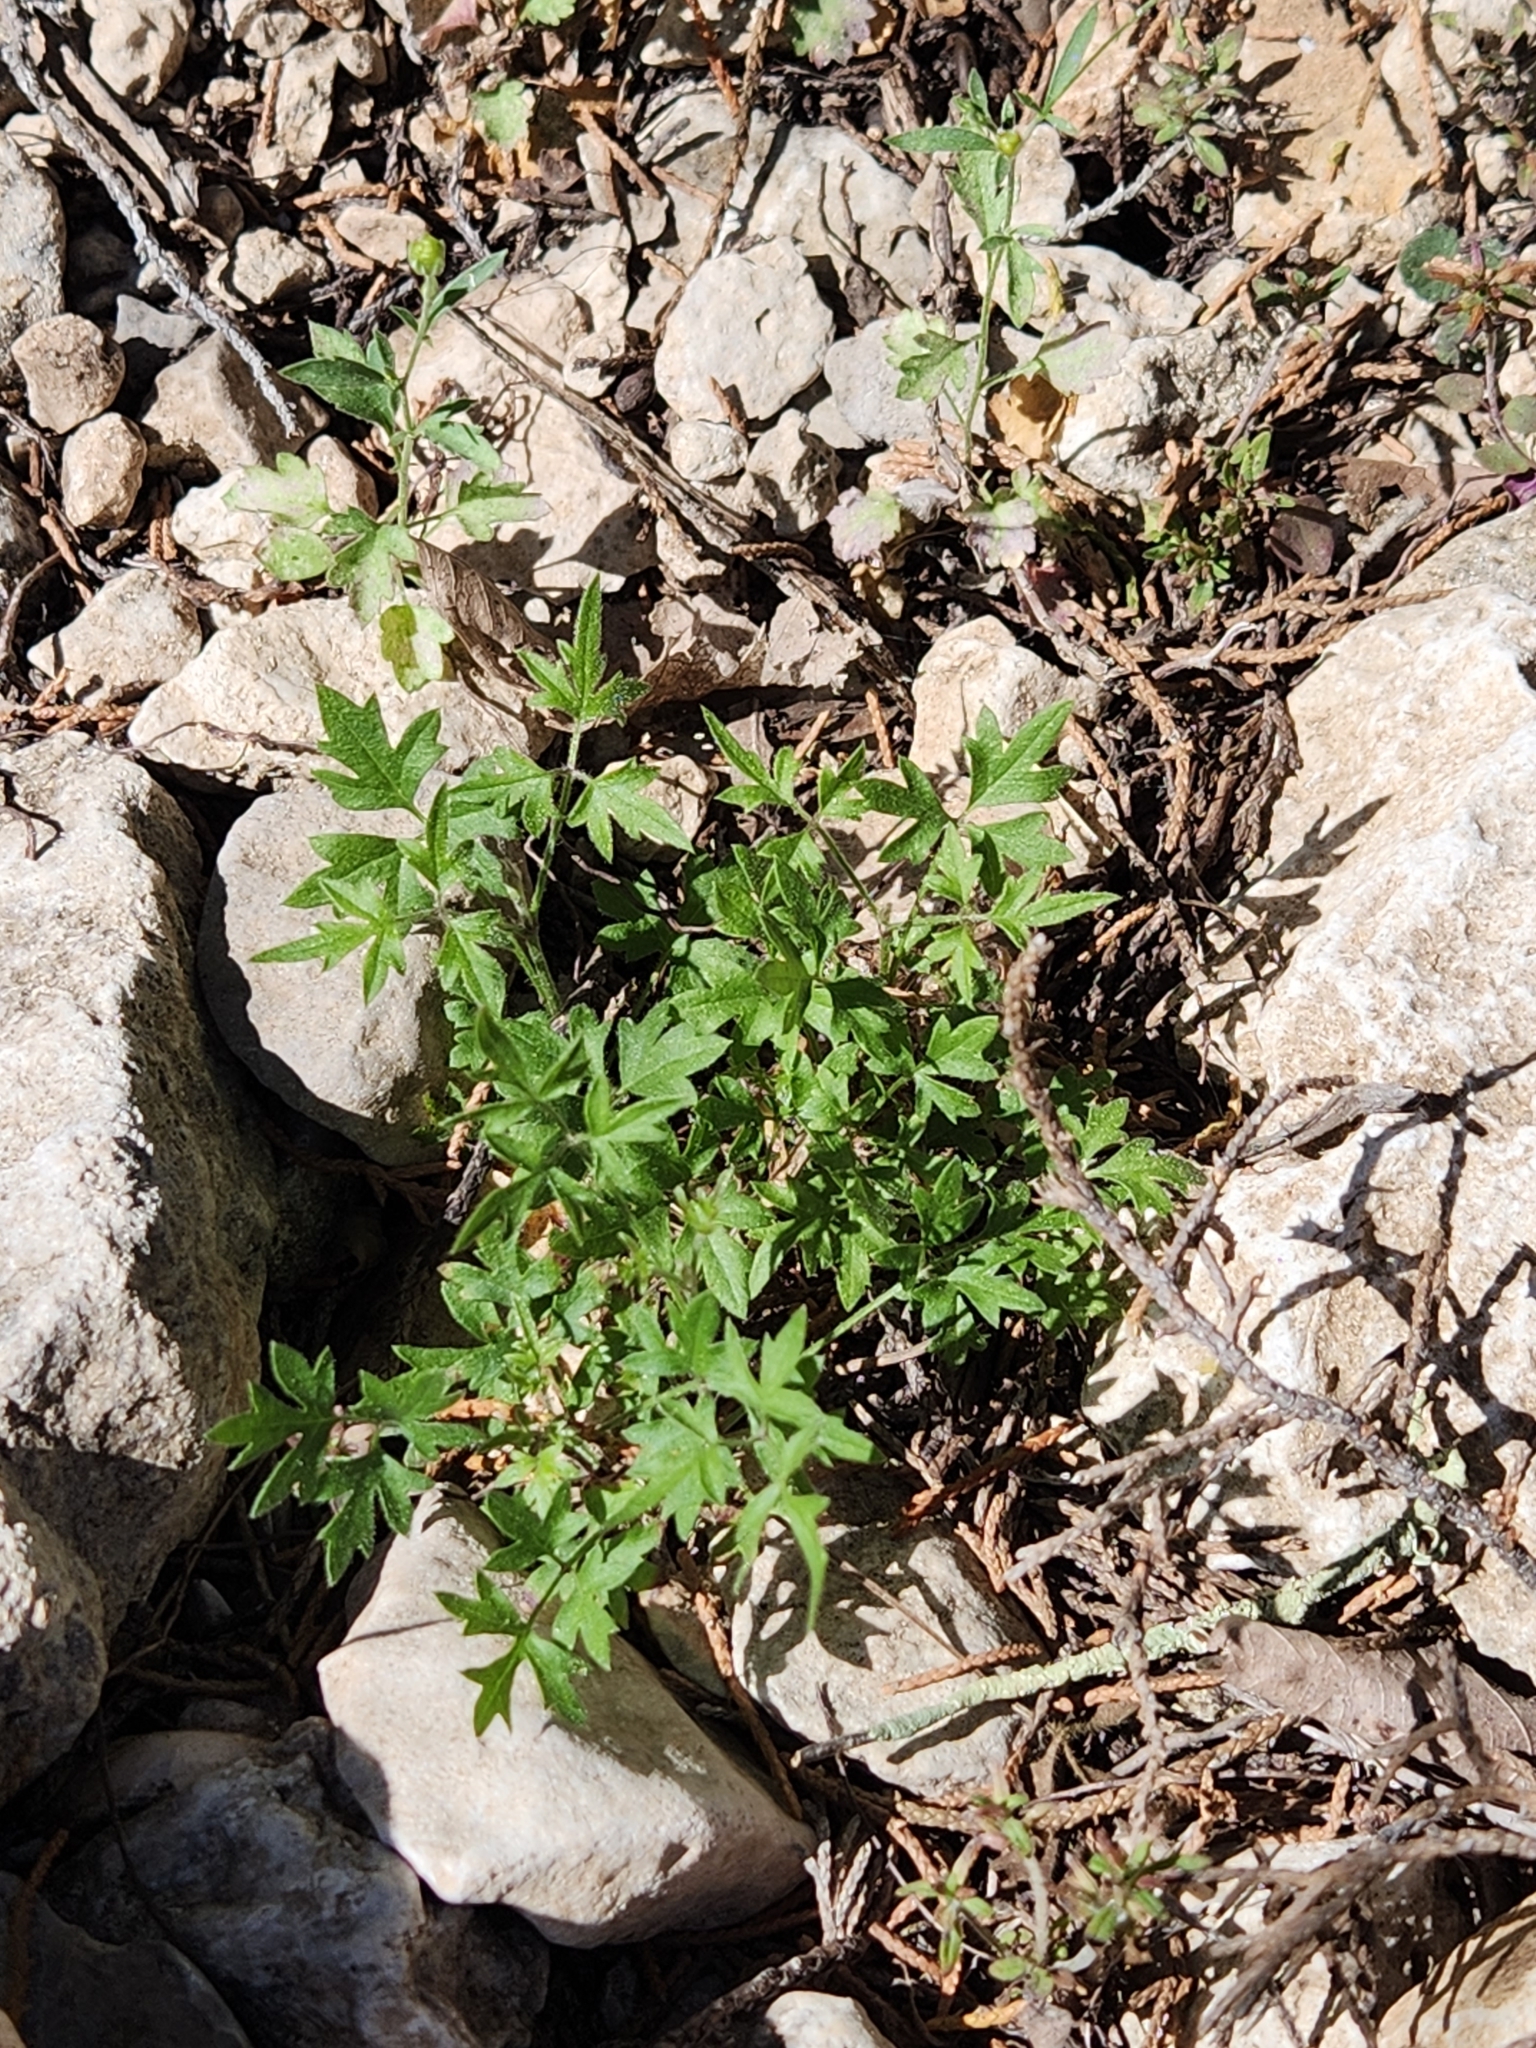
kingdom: Plantae
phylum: Tracheophyta
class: Magnoliopsida
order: Ranunculales
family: Ranunculaceae
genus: Clematis
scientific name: Clematis drummondii
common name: Texas virgin's bower
